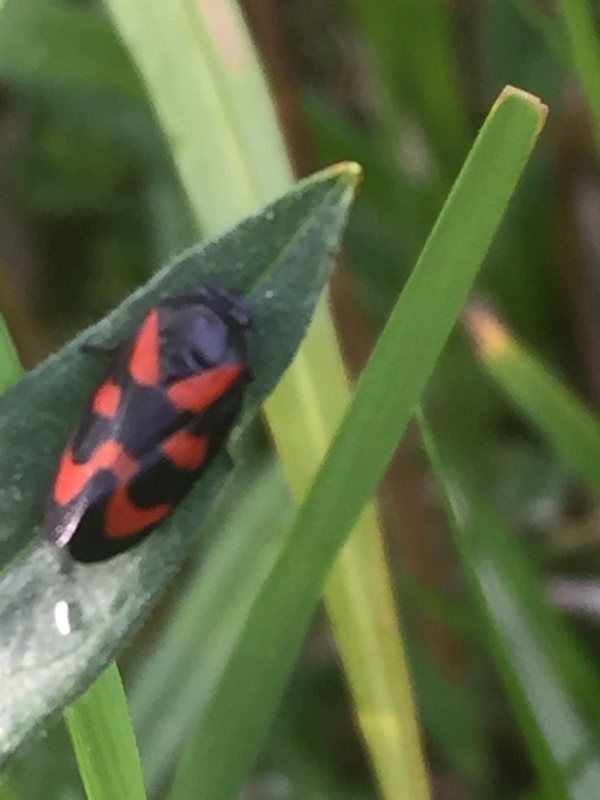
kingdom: Animalia
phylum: Arthropoda
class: Insecta
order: Hemiptera
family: Cercopidae
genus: Cercopis
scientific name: Cercopis vulnerata
